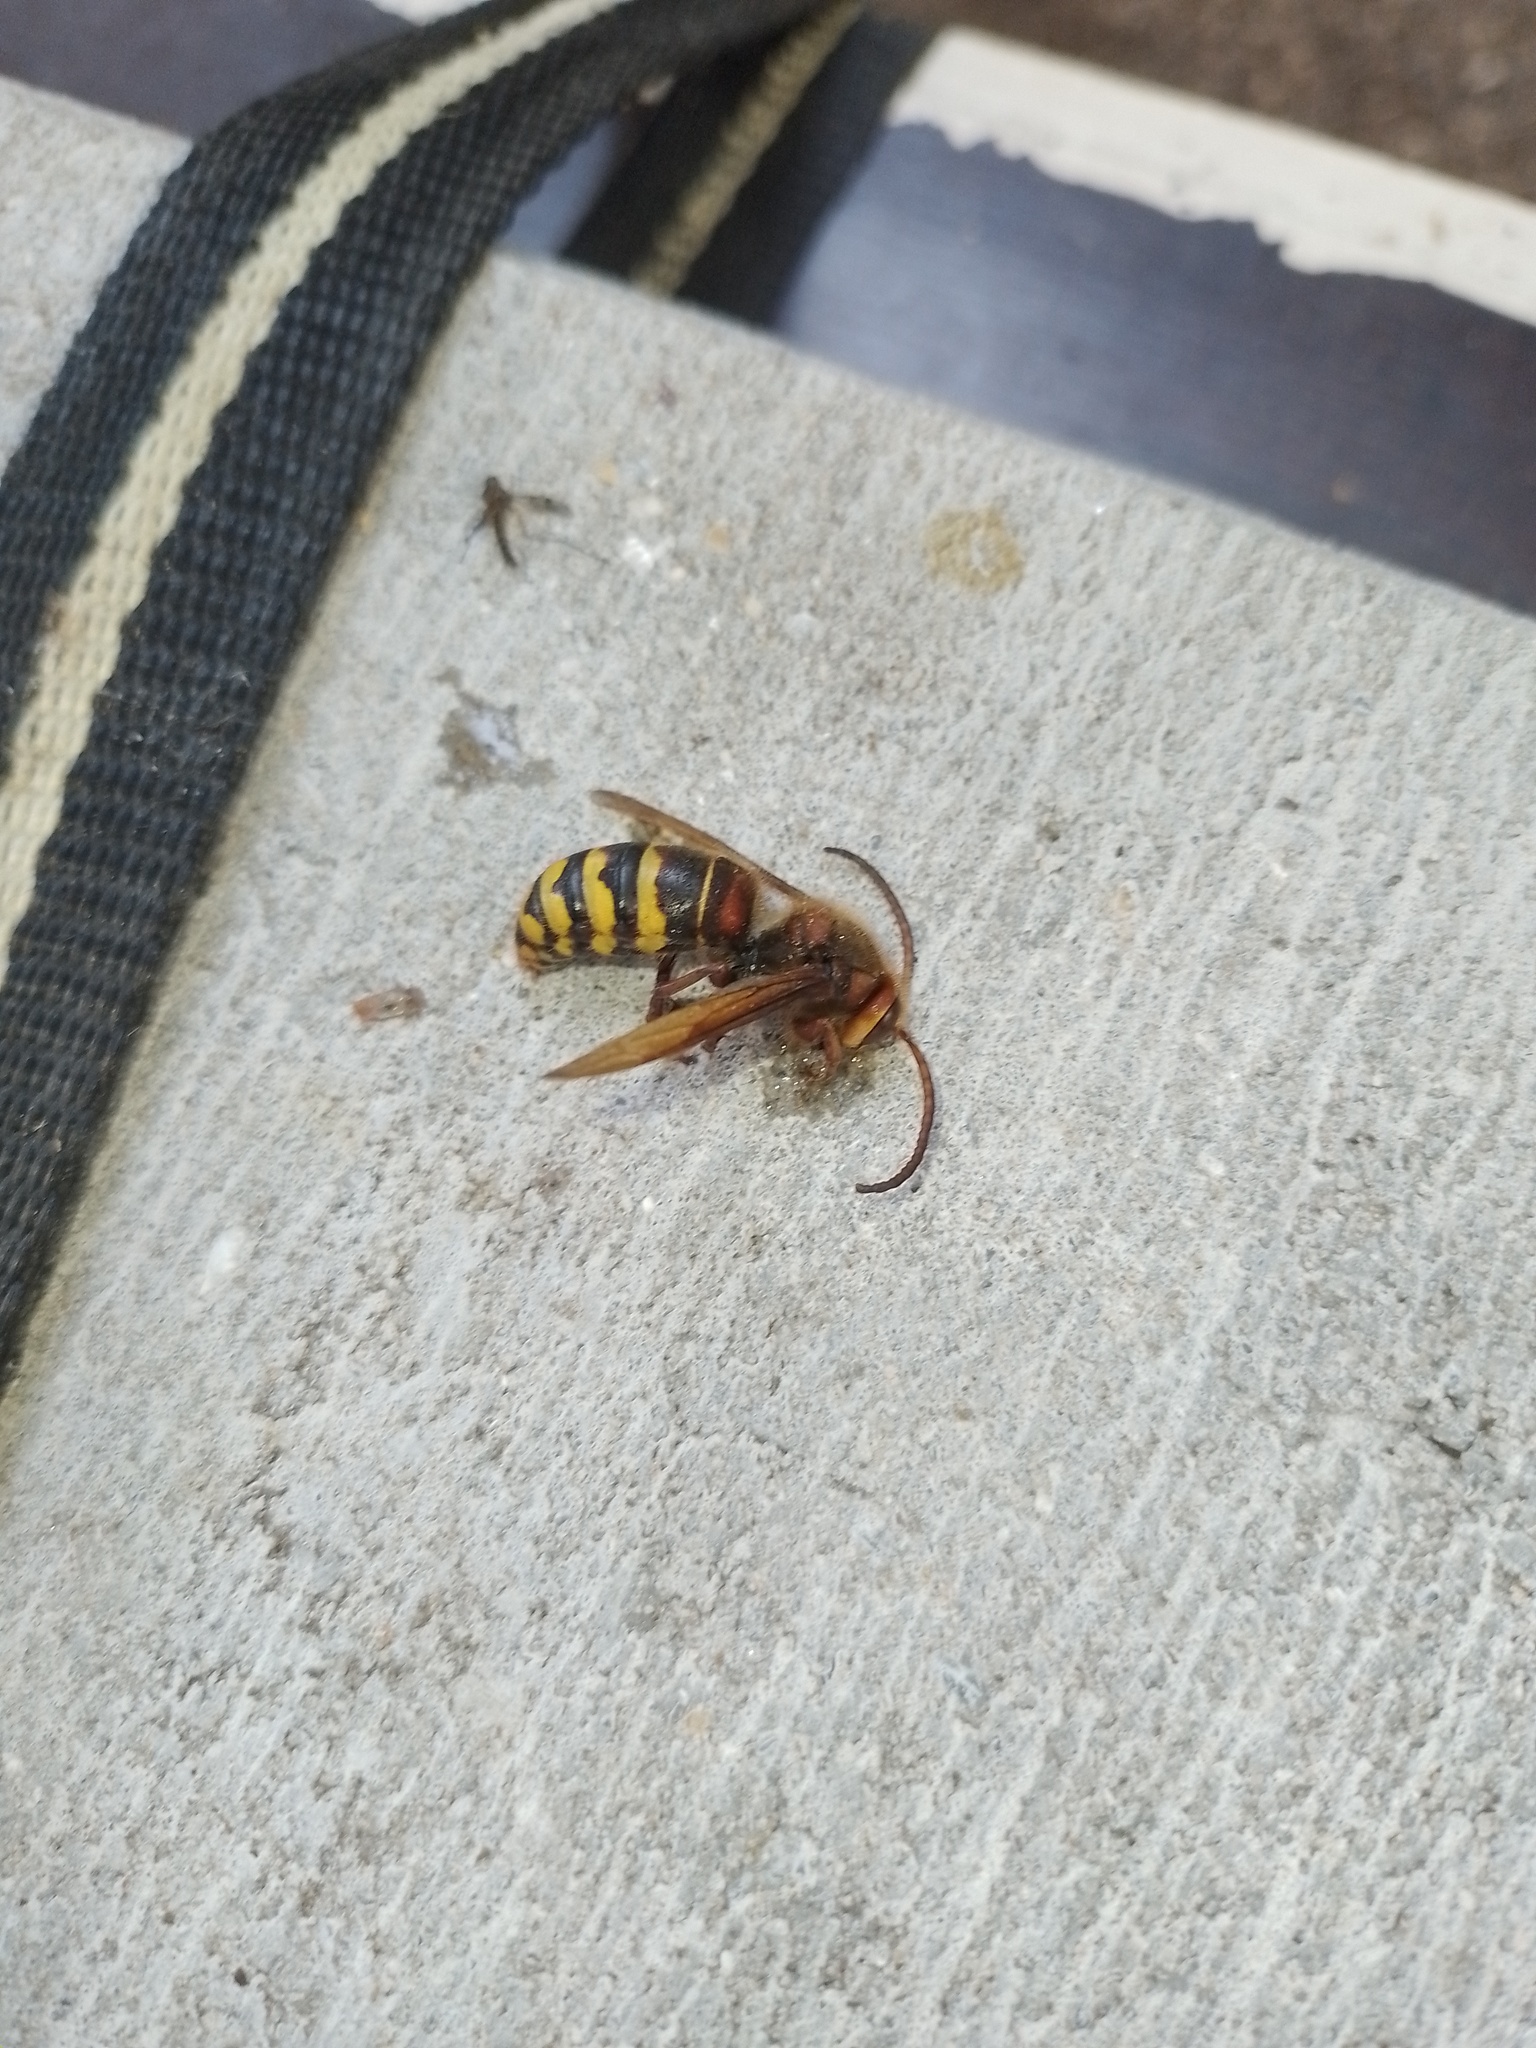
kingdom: Animalia
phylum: Arthropoda
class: Insecta
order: Hymenoptera
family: Vespidae
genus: Vespa
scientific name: Vespa crabro
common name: Hornet
